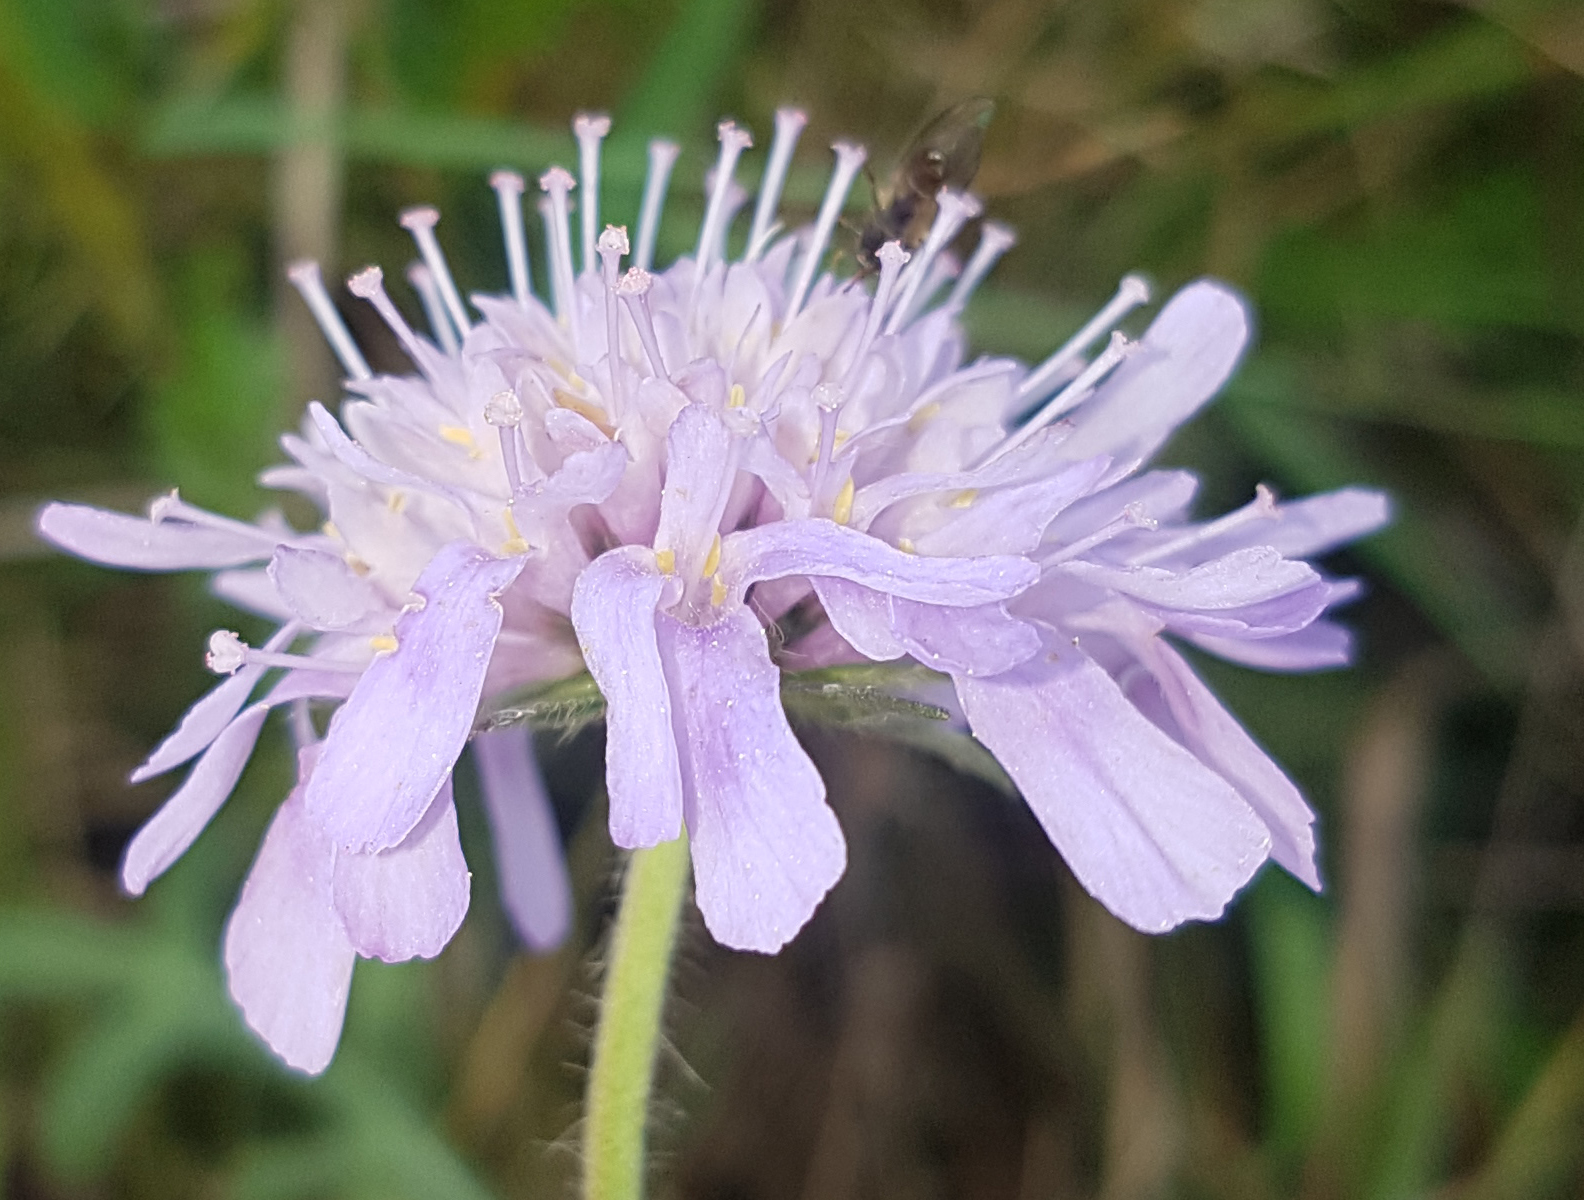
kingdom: Plantae
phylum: Tracheophyta
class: Magnoliopsida
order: Dipsacales
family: Caprifoliaceae
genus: Knautia
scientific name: Knautia arvensis
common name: Field scabiosa
